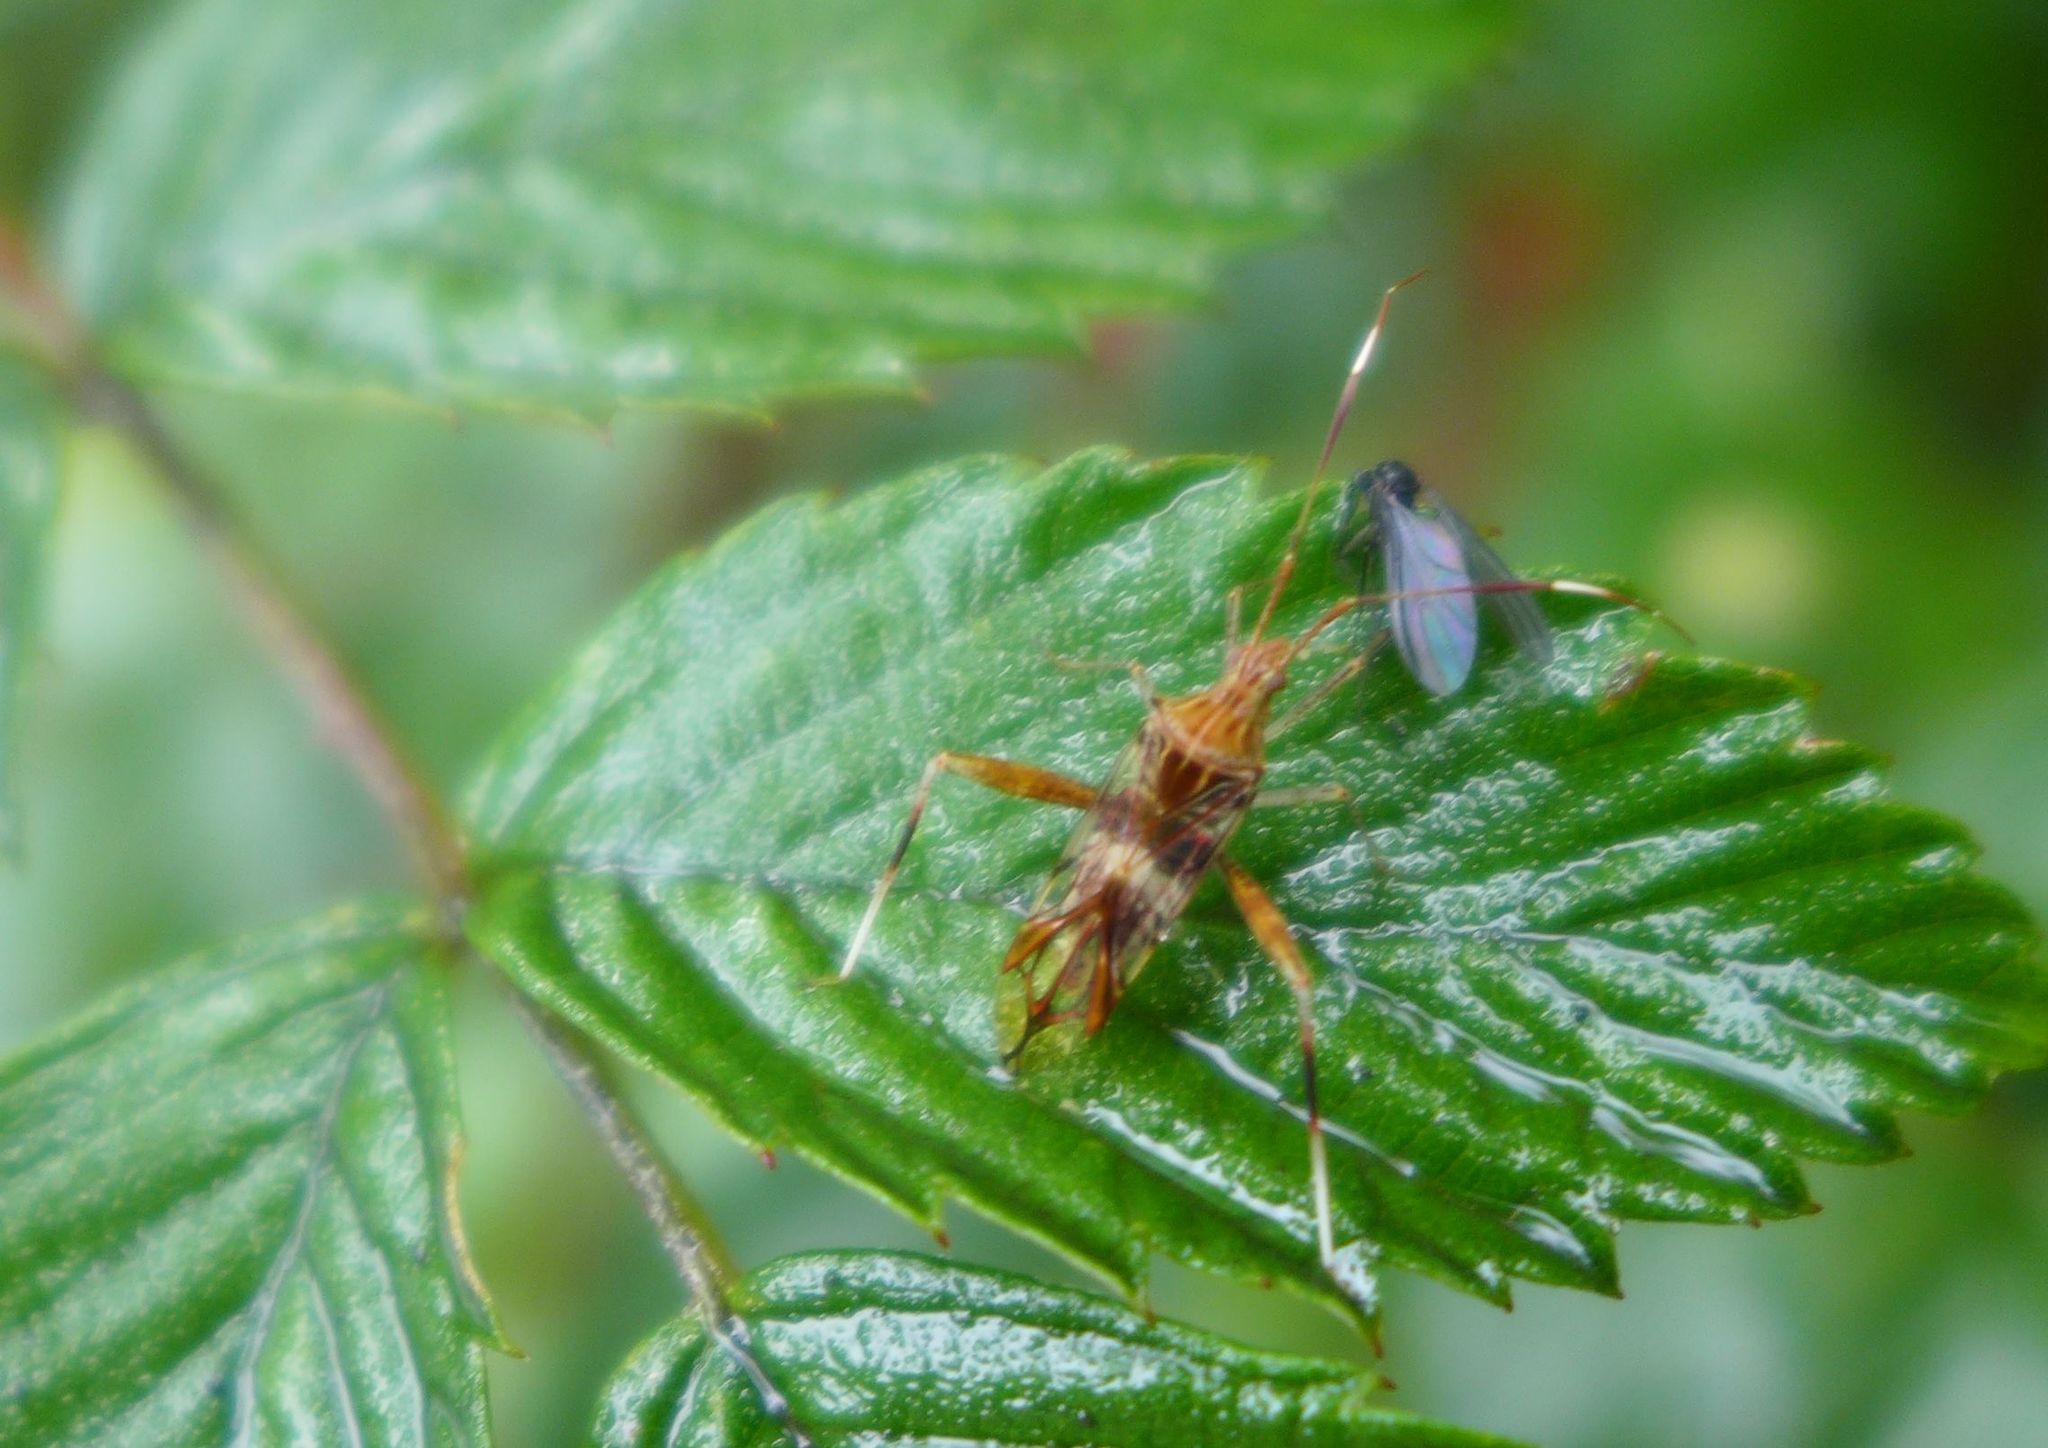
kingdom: Animalia
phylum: Arthropoda
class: Insecta
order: Hemiptera
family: Miridae
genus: Isabel
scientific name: Isabel ravana
